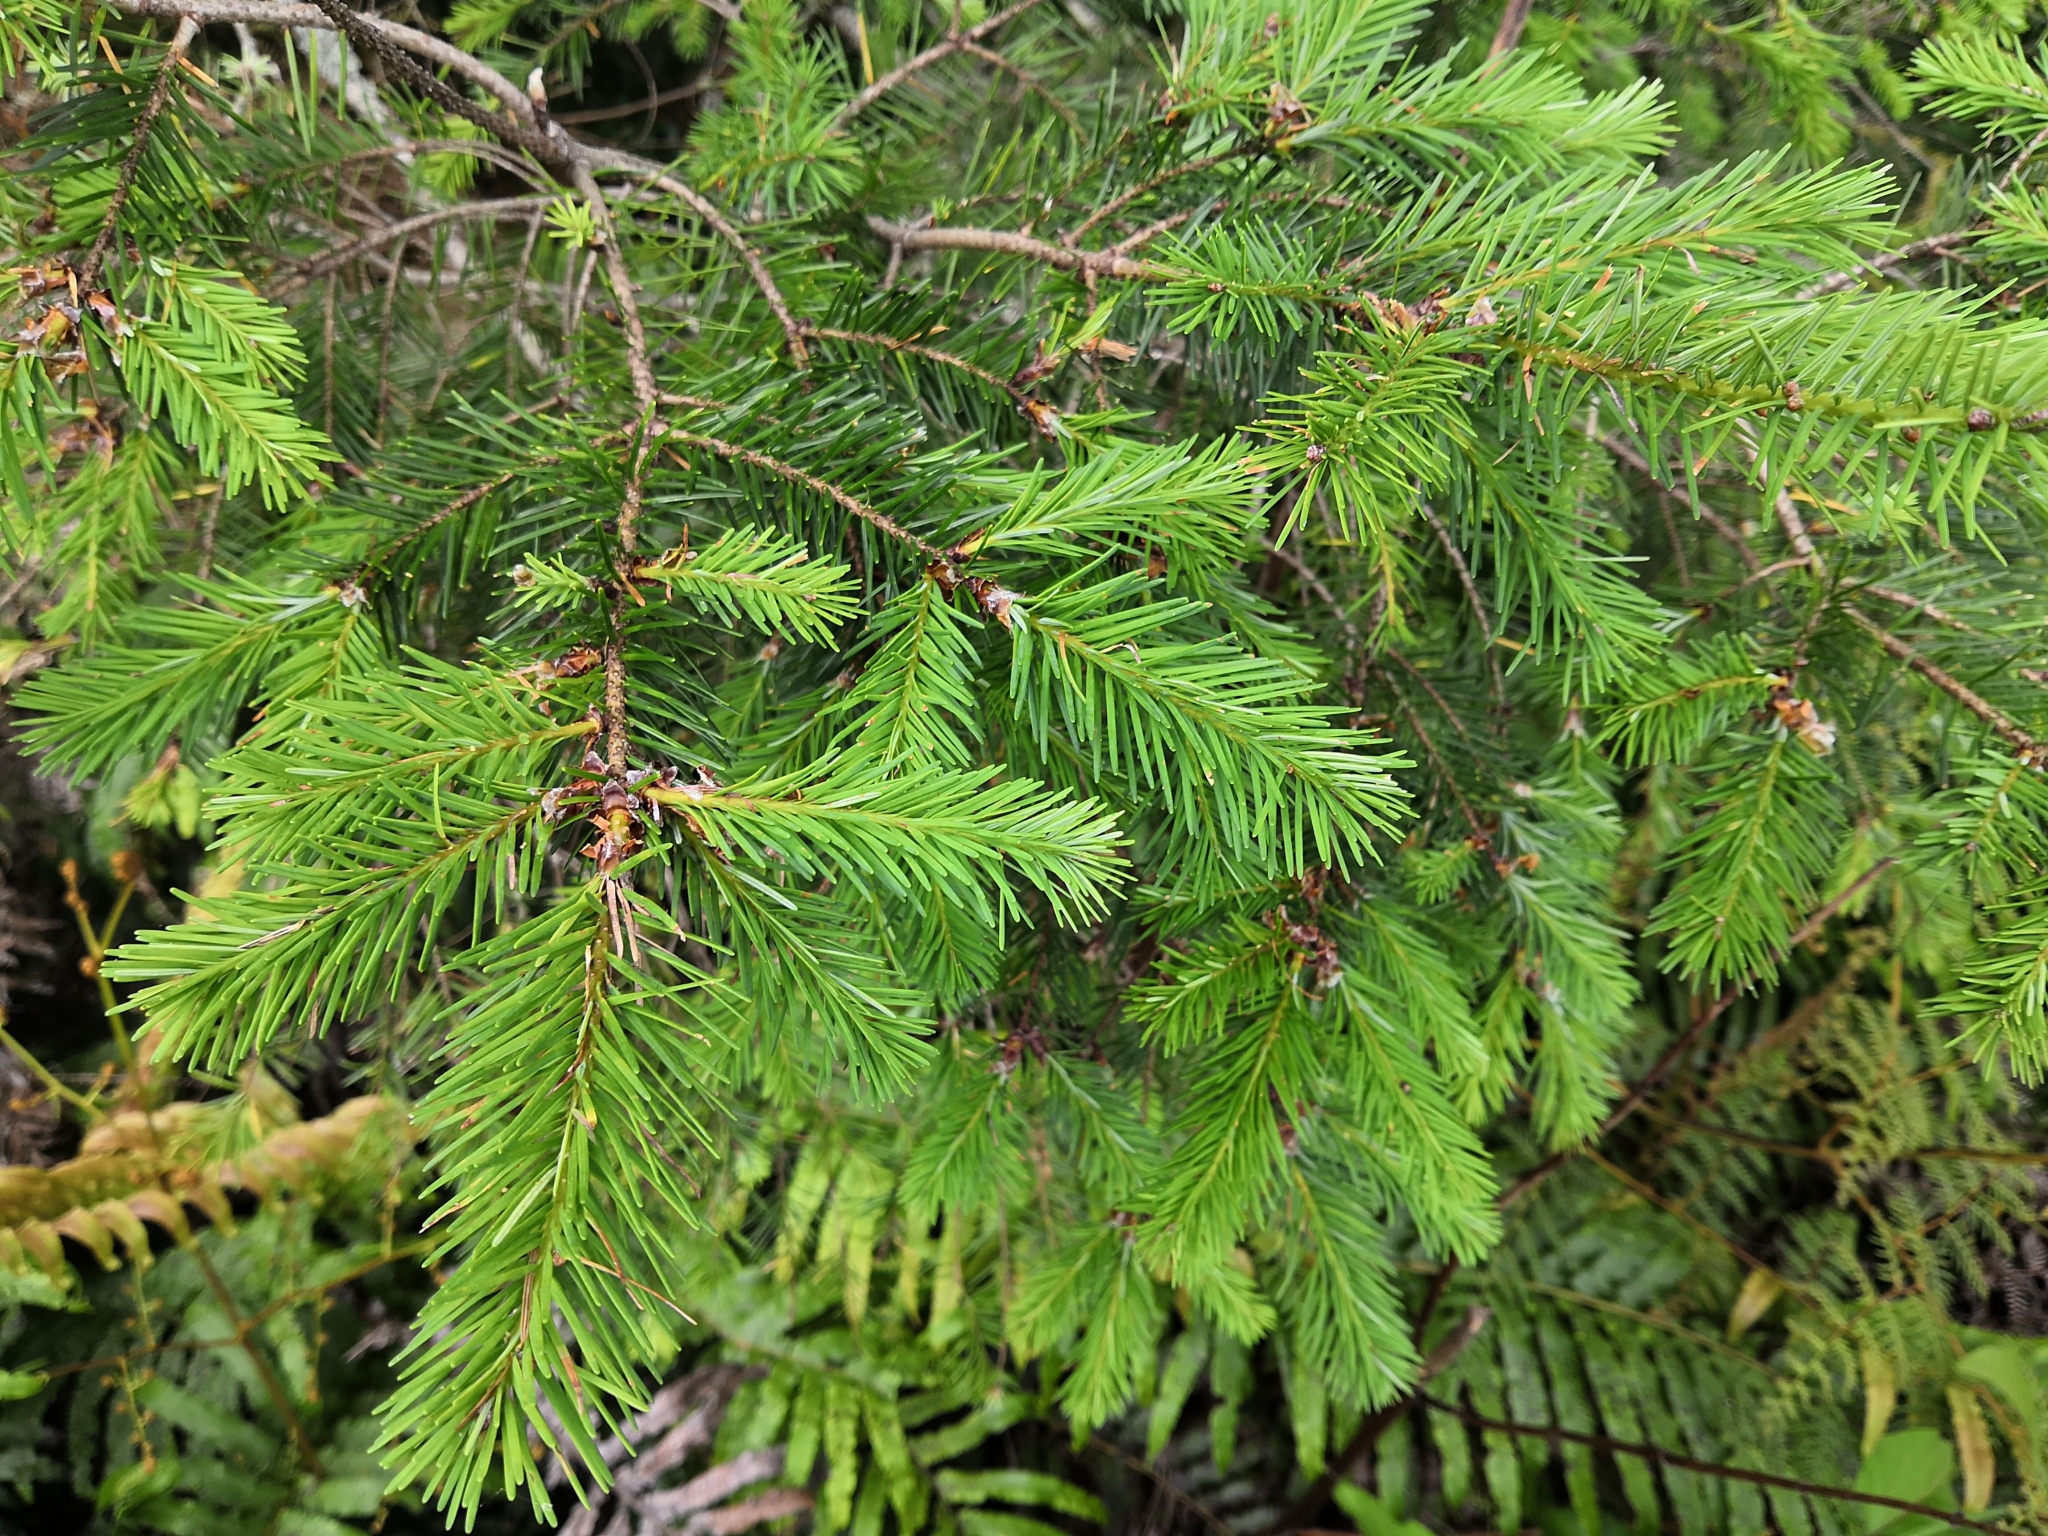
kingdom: Plantae
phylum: Tracheophyta
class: Pinopsida
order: Pinales
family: Pinaceae
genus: Pseudotsuga
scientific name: Pseudotsuga menziesii
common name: Douglas fir
